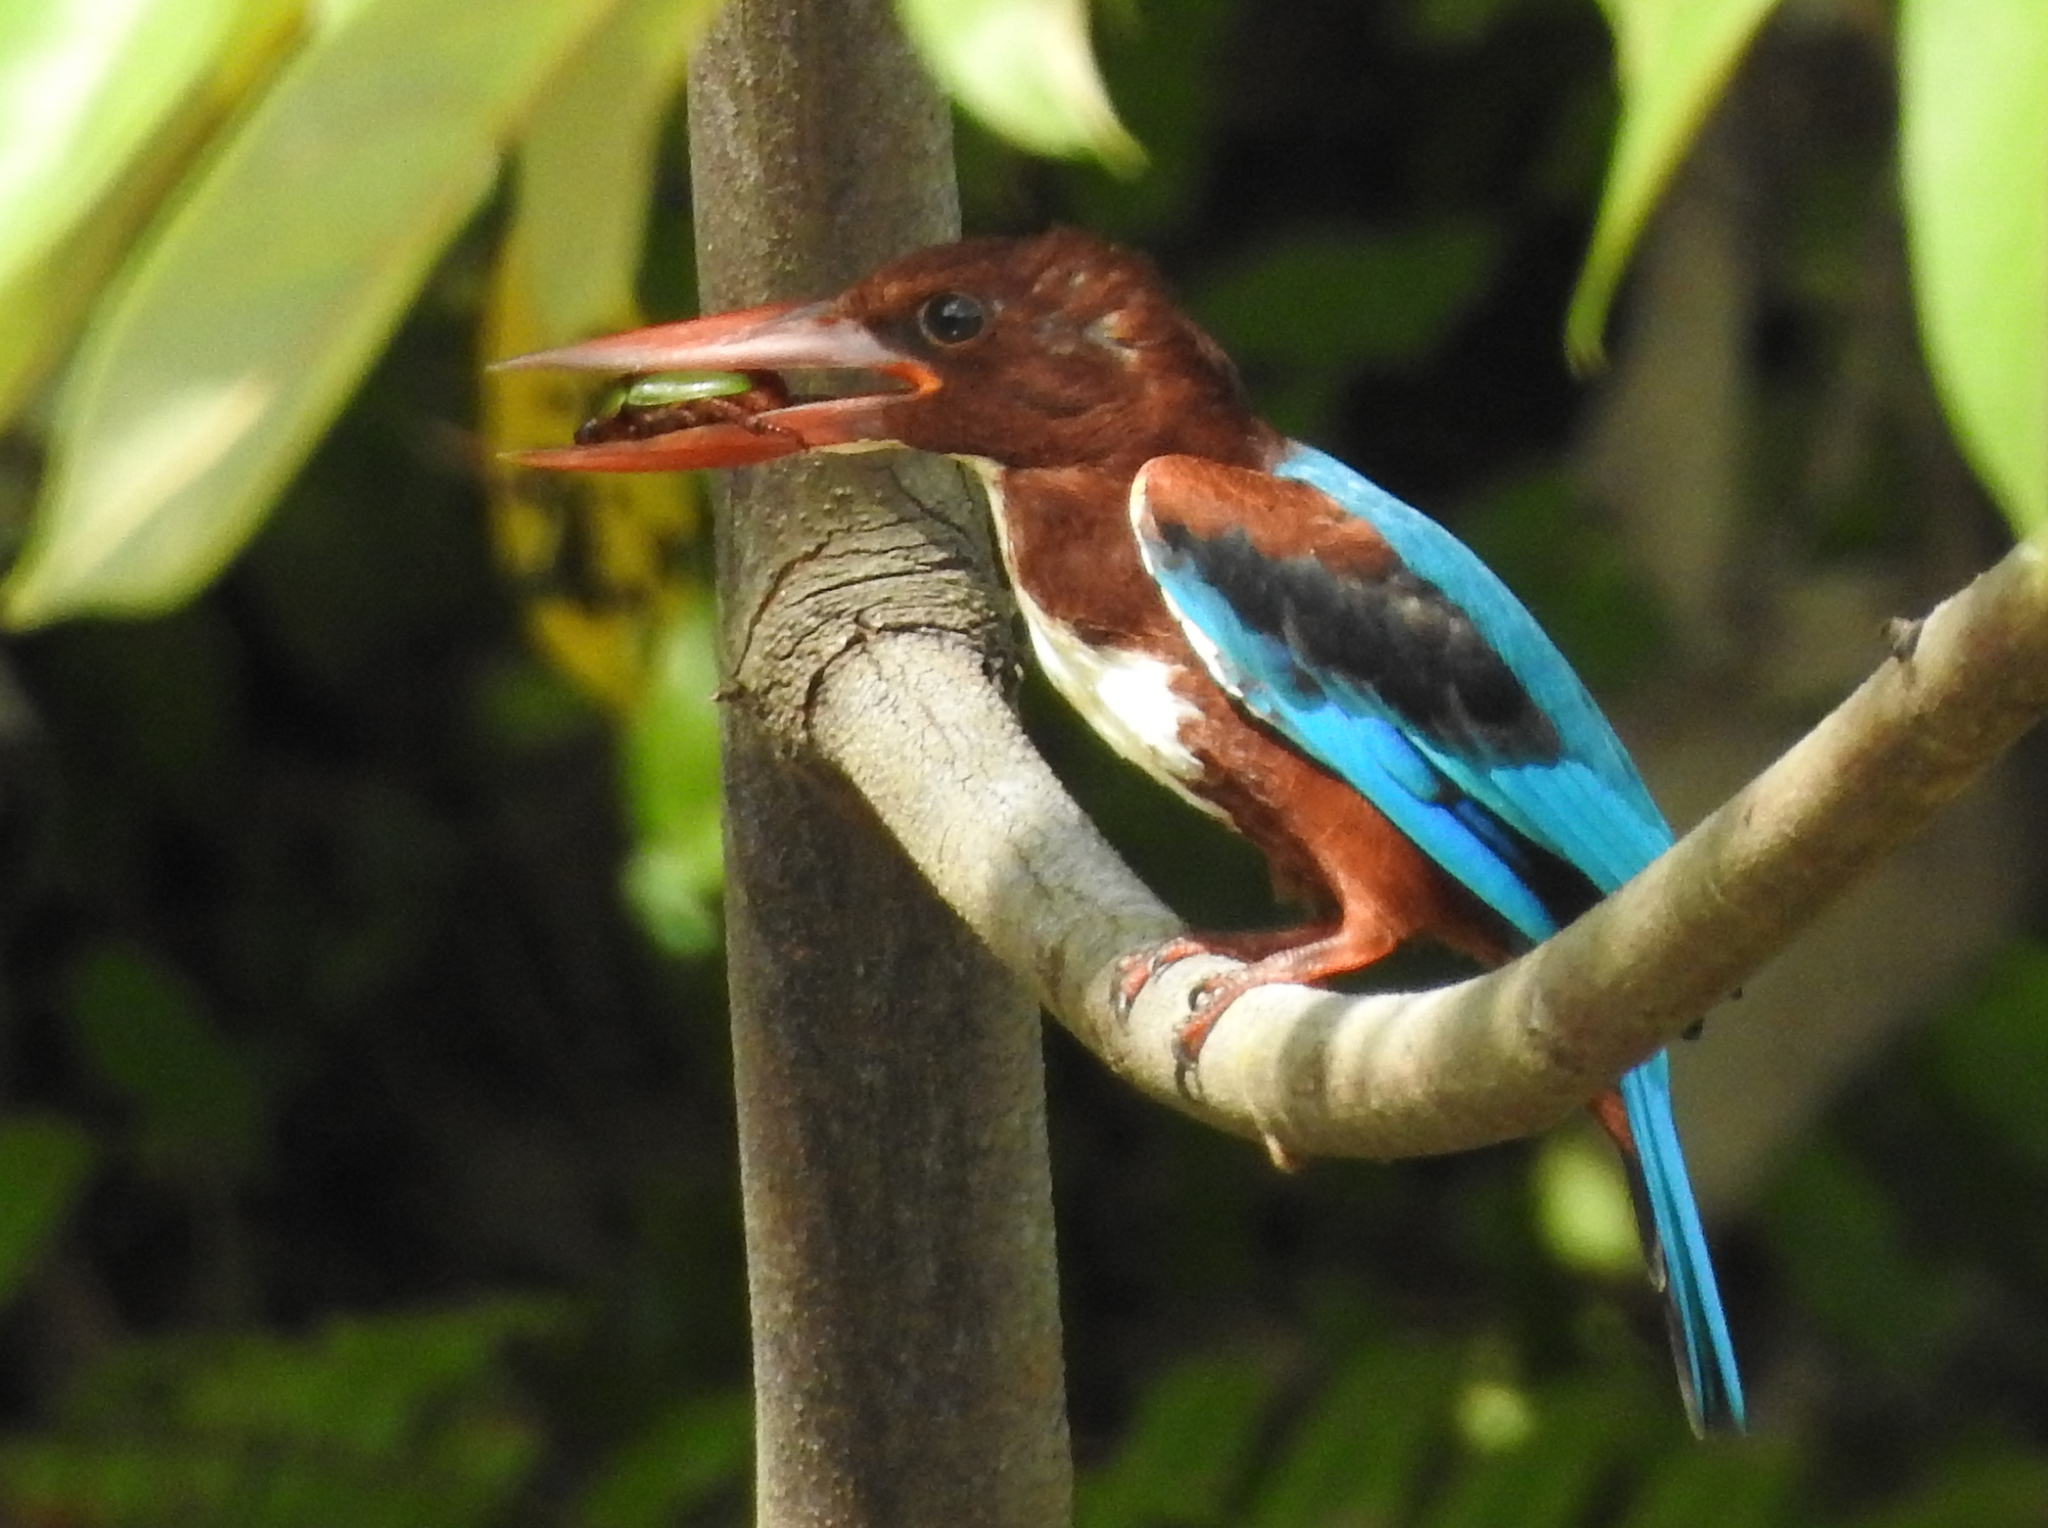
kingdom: Animalia
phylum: Chordata
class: Aves
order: Coraciiformes
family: Alcedinidae
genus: Halcyon
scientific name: Halcyon smyrnensis
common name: White-throated kingfisher
